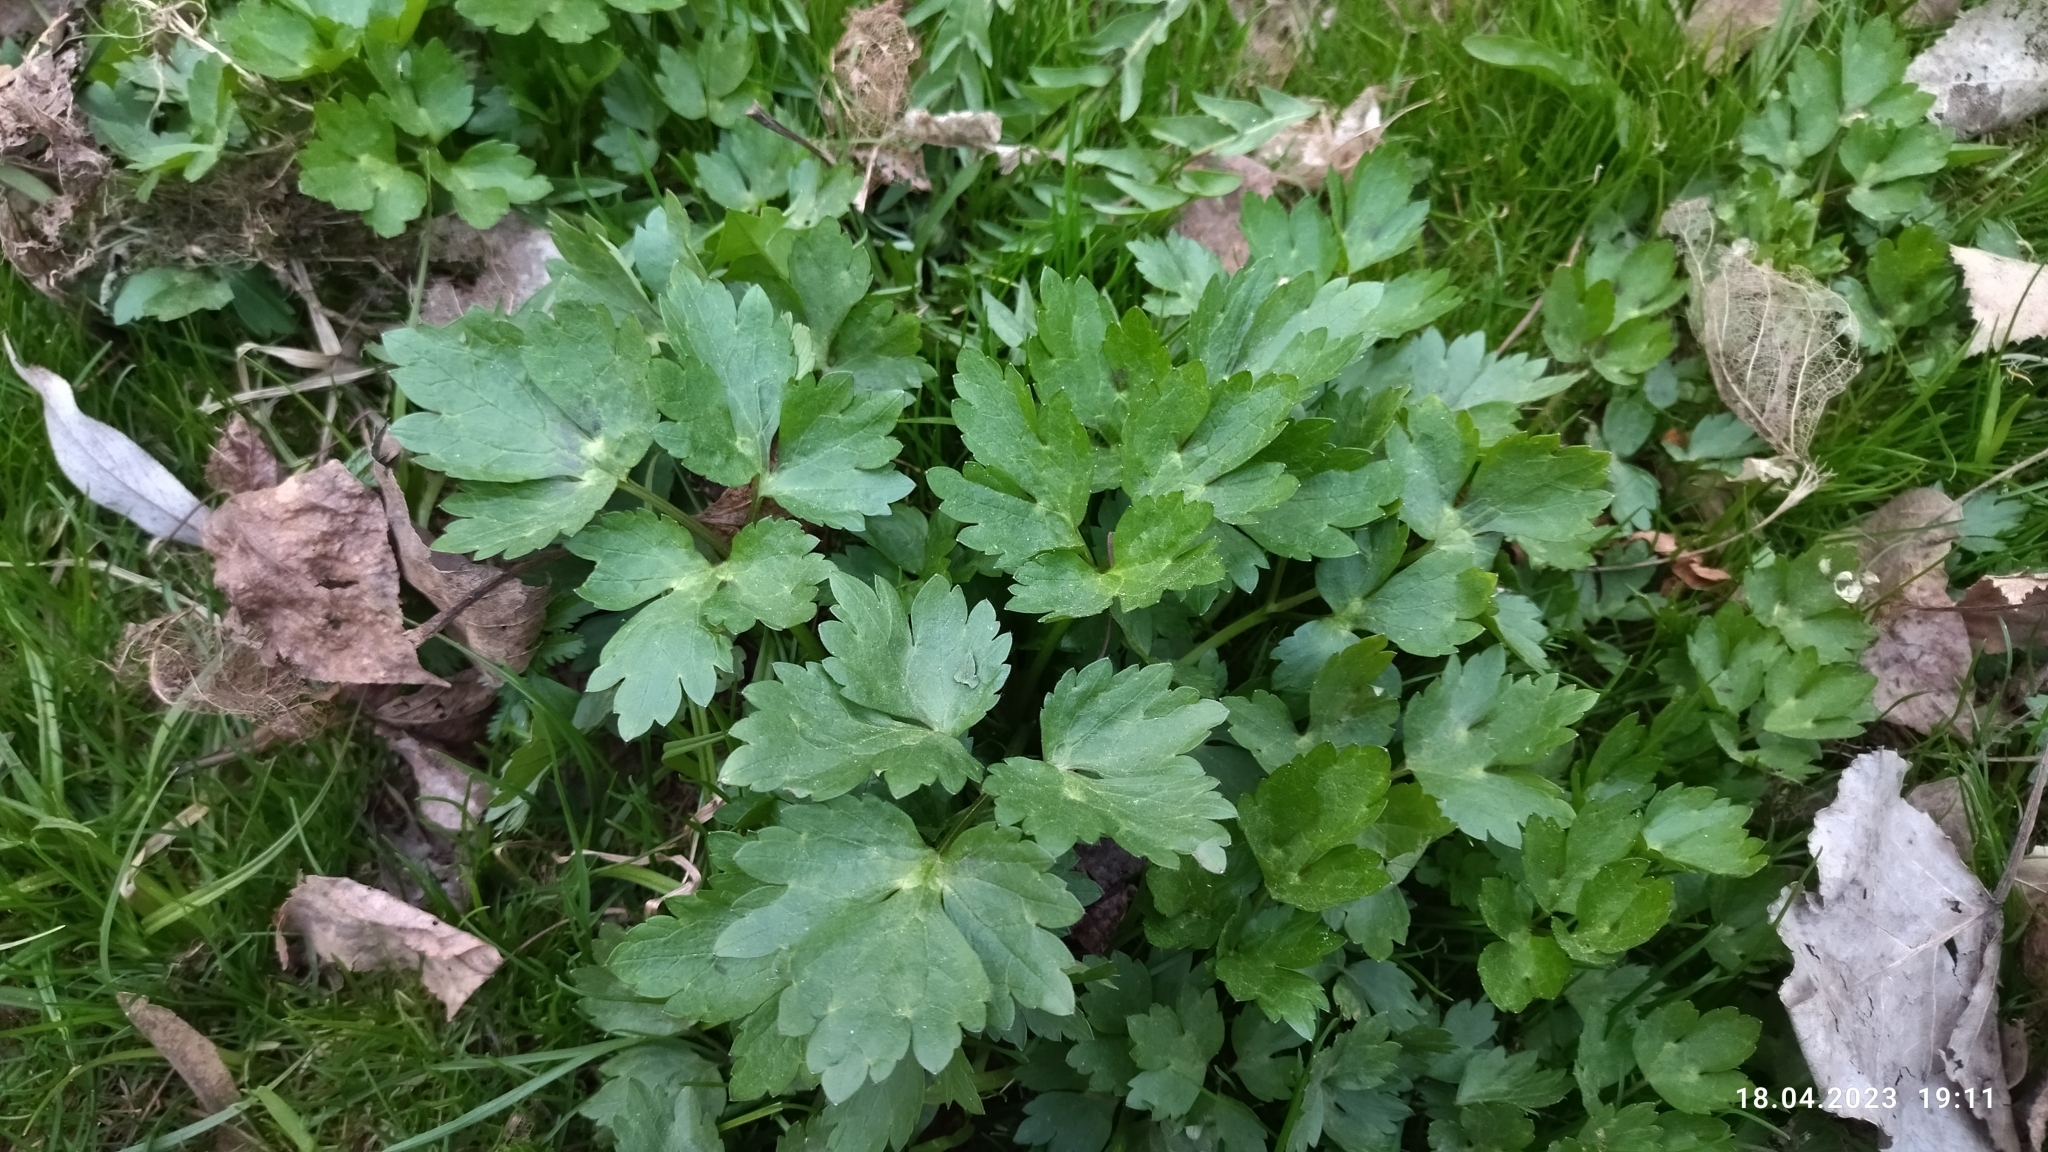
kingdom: Plantae
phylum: Tracheophyta
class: Magnoliopsida
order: Ranunculales
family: Ranunculaceae
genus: Ranunculus
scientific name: Ranunculus repens
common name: Creeping buttercup
